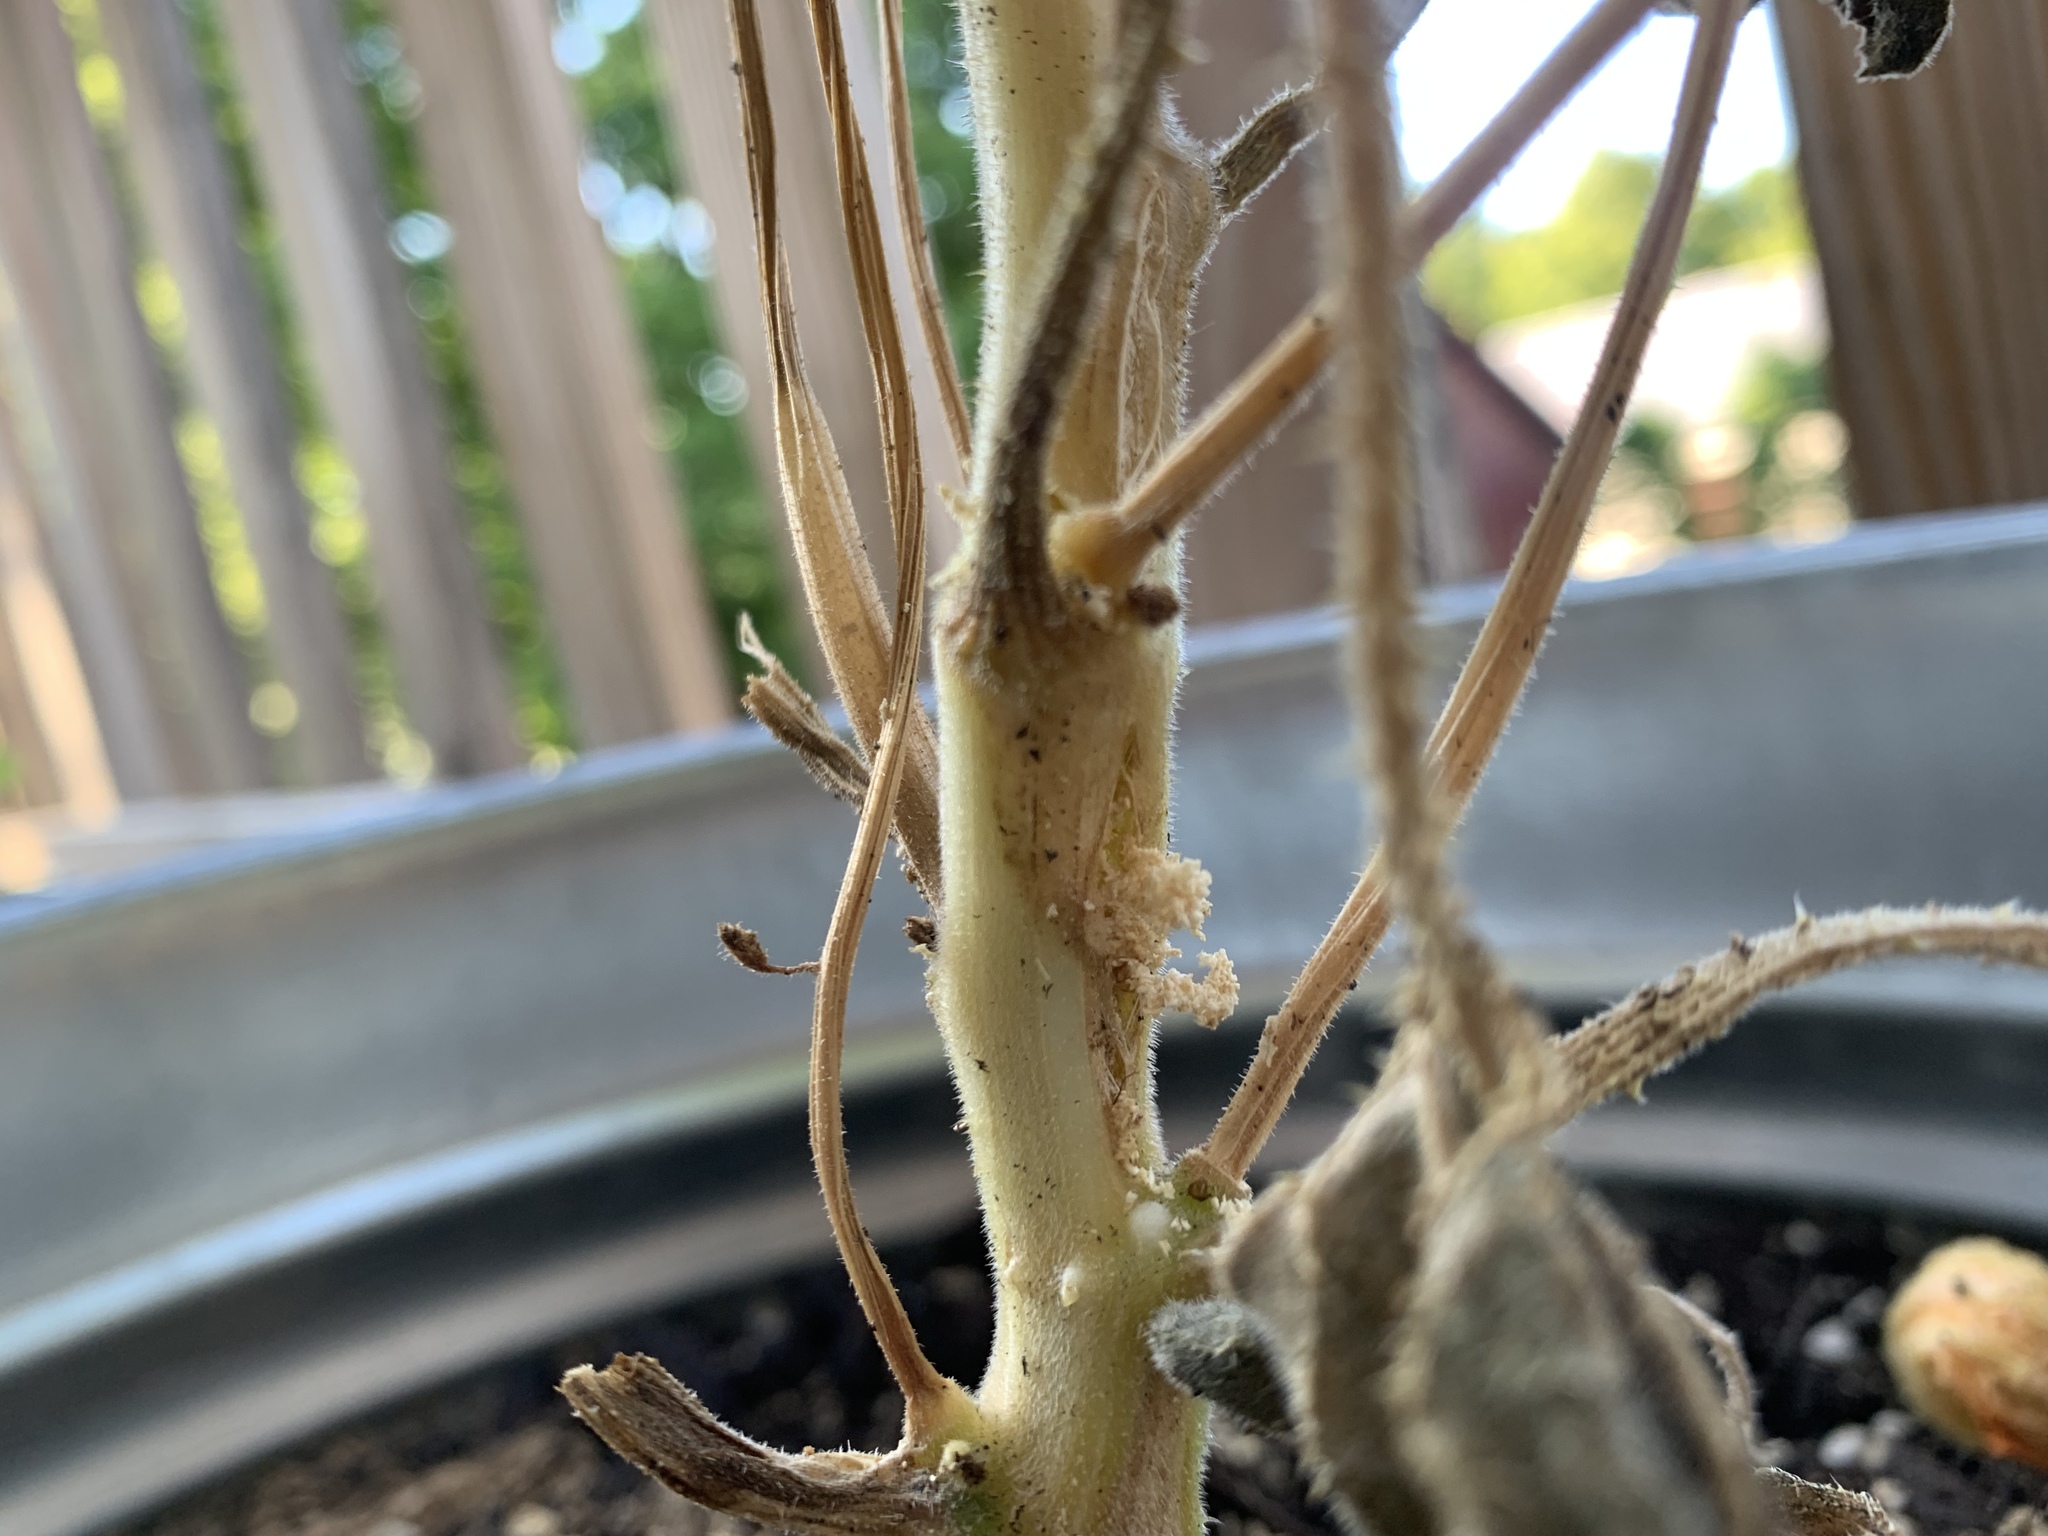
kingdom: Animalia
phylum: Arthropoda
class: Insecta
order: Lepidoptera
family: Sesiidae
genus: Eichlinia
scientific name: Eichlinia cucurbitae
